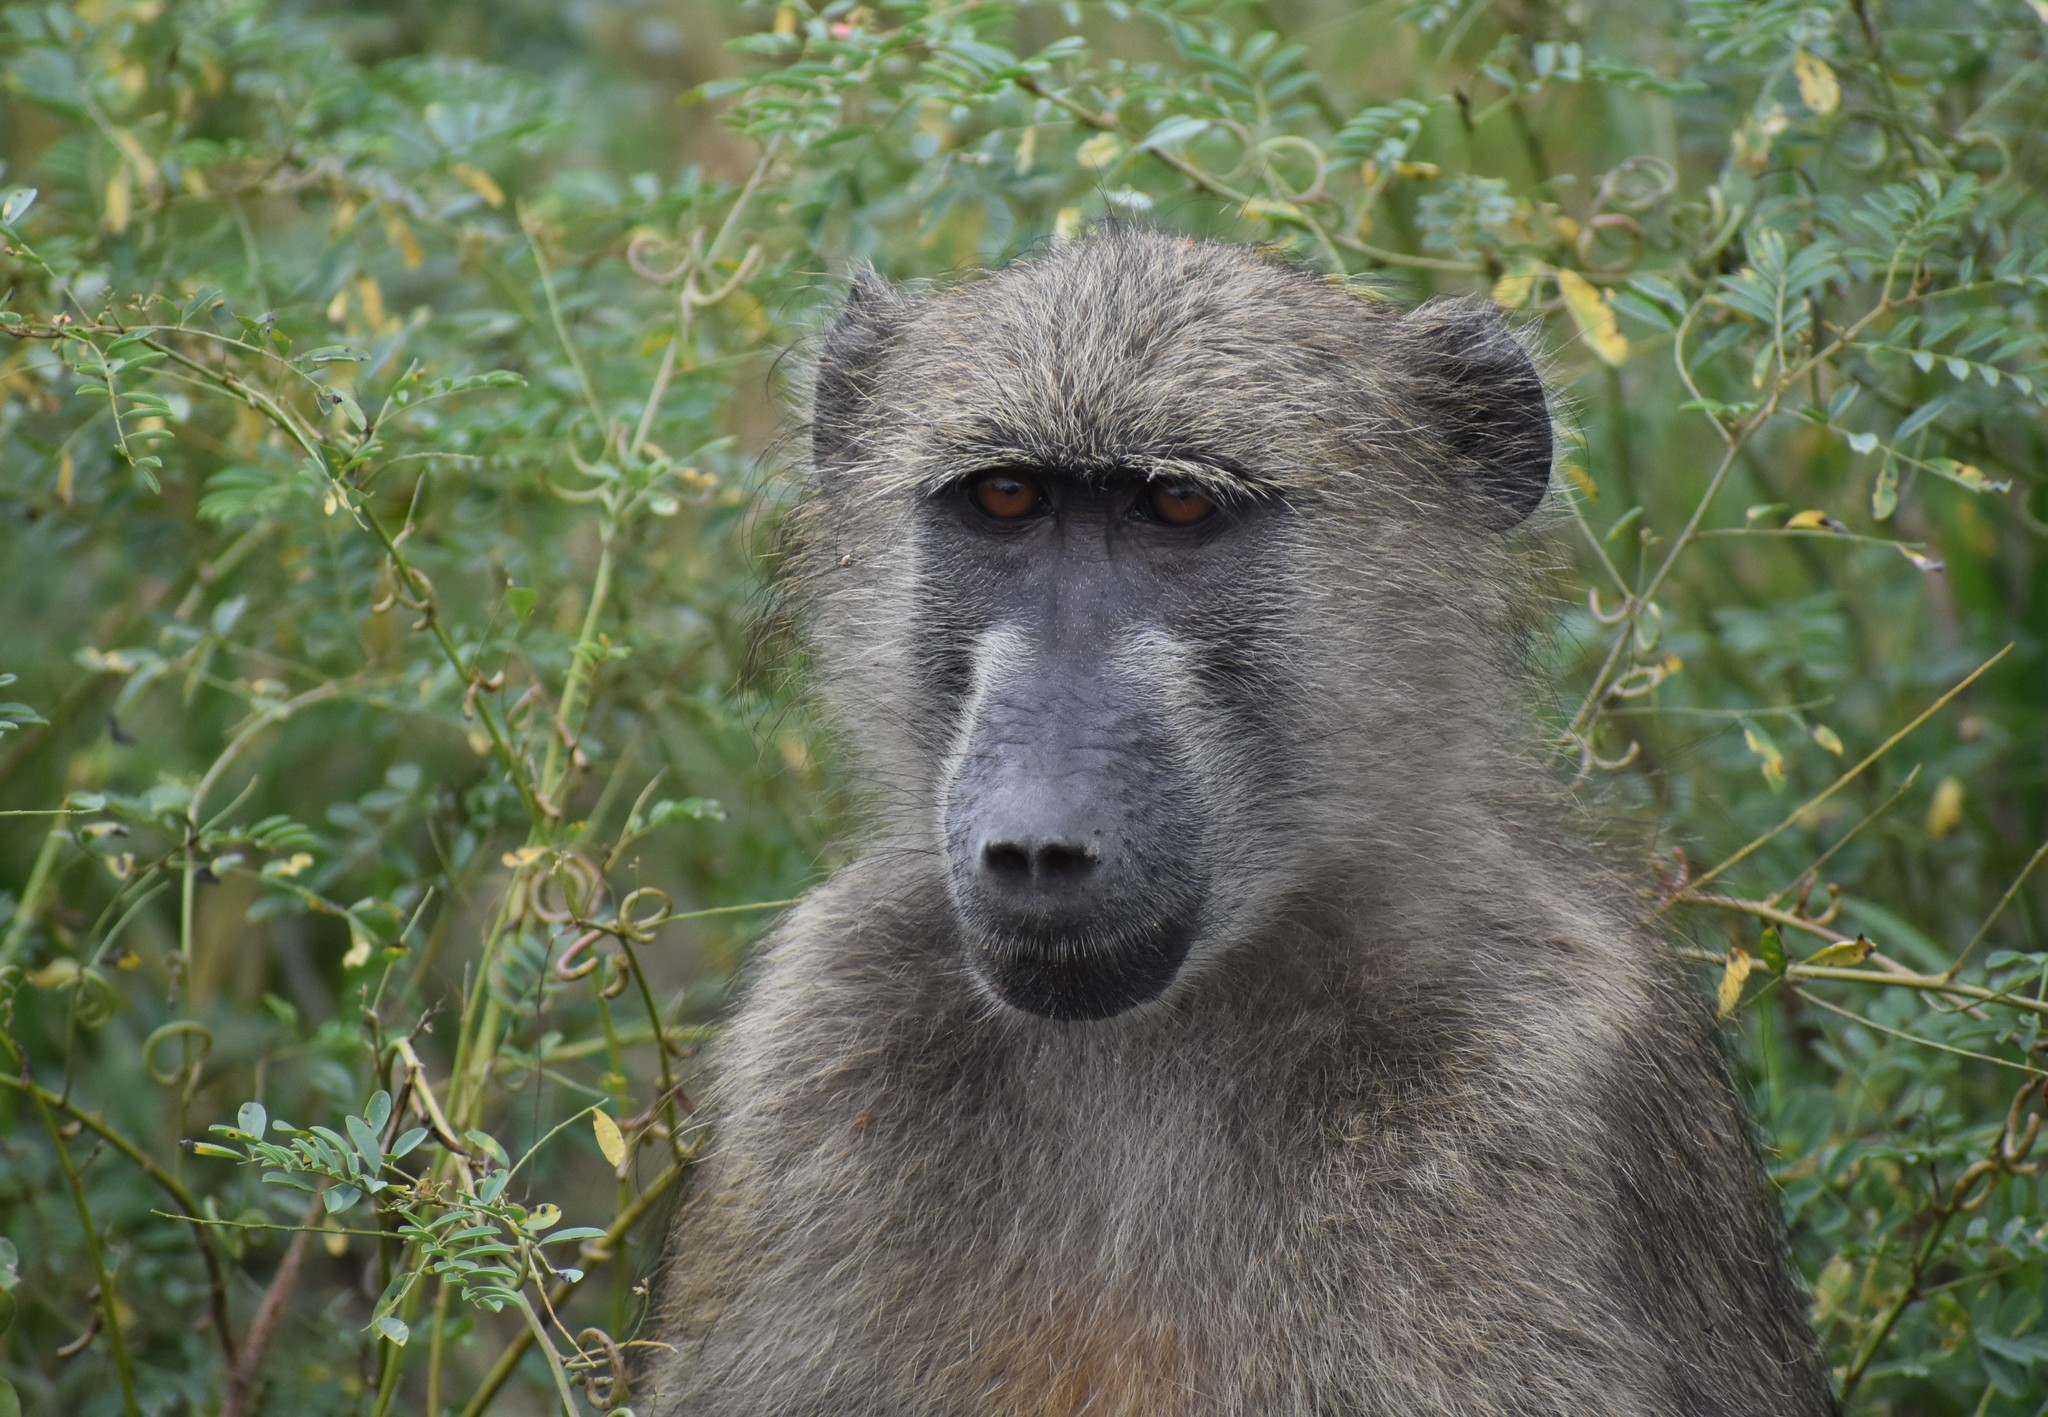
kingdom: Animalia
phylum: Chordata
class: Mammalia
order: Primates
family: Cercopithecidae
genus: Papio
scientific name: Papio ursinus
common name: Chacma baboon
